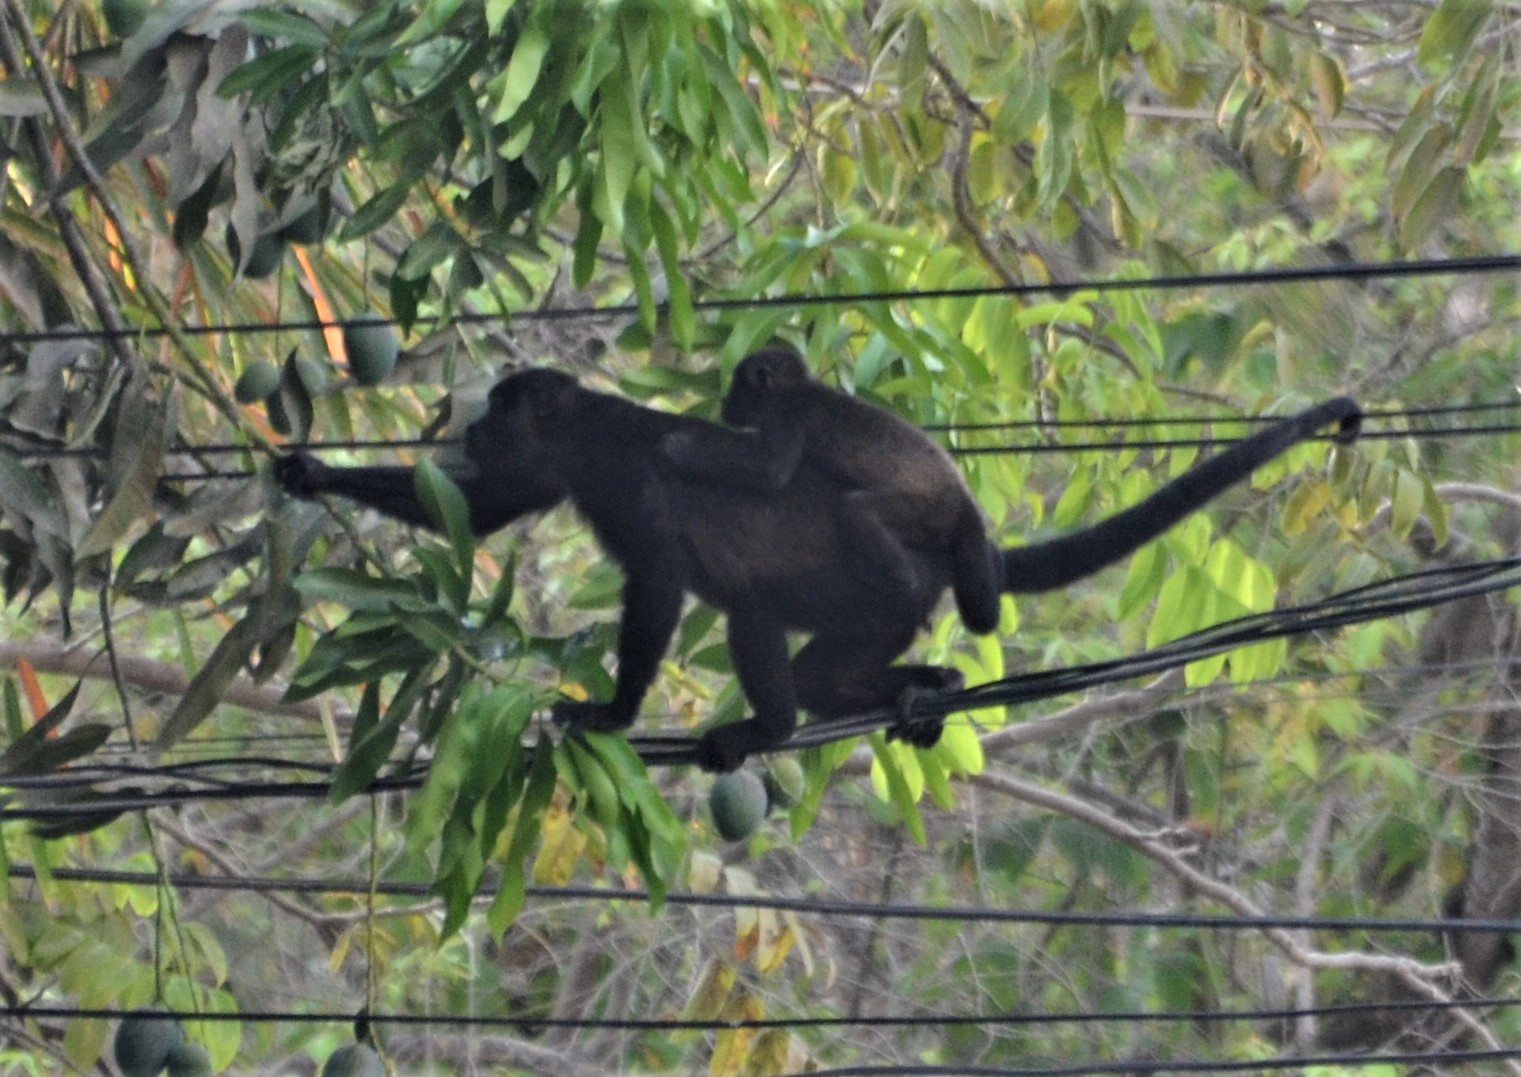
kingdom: Animalia
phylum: Chordata
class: Mammalia
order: Primates
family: Atelidae
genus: Alouatta
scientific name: Alouatta palliata
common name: Mantled howler
